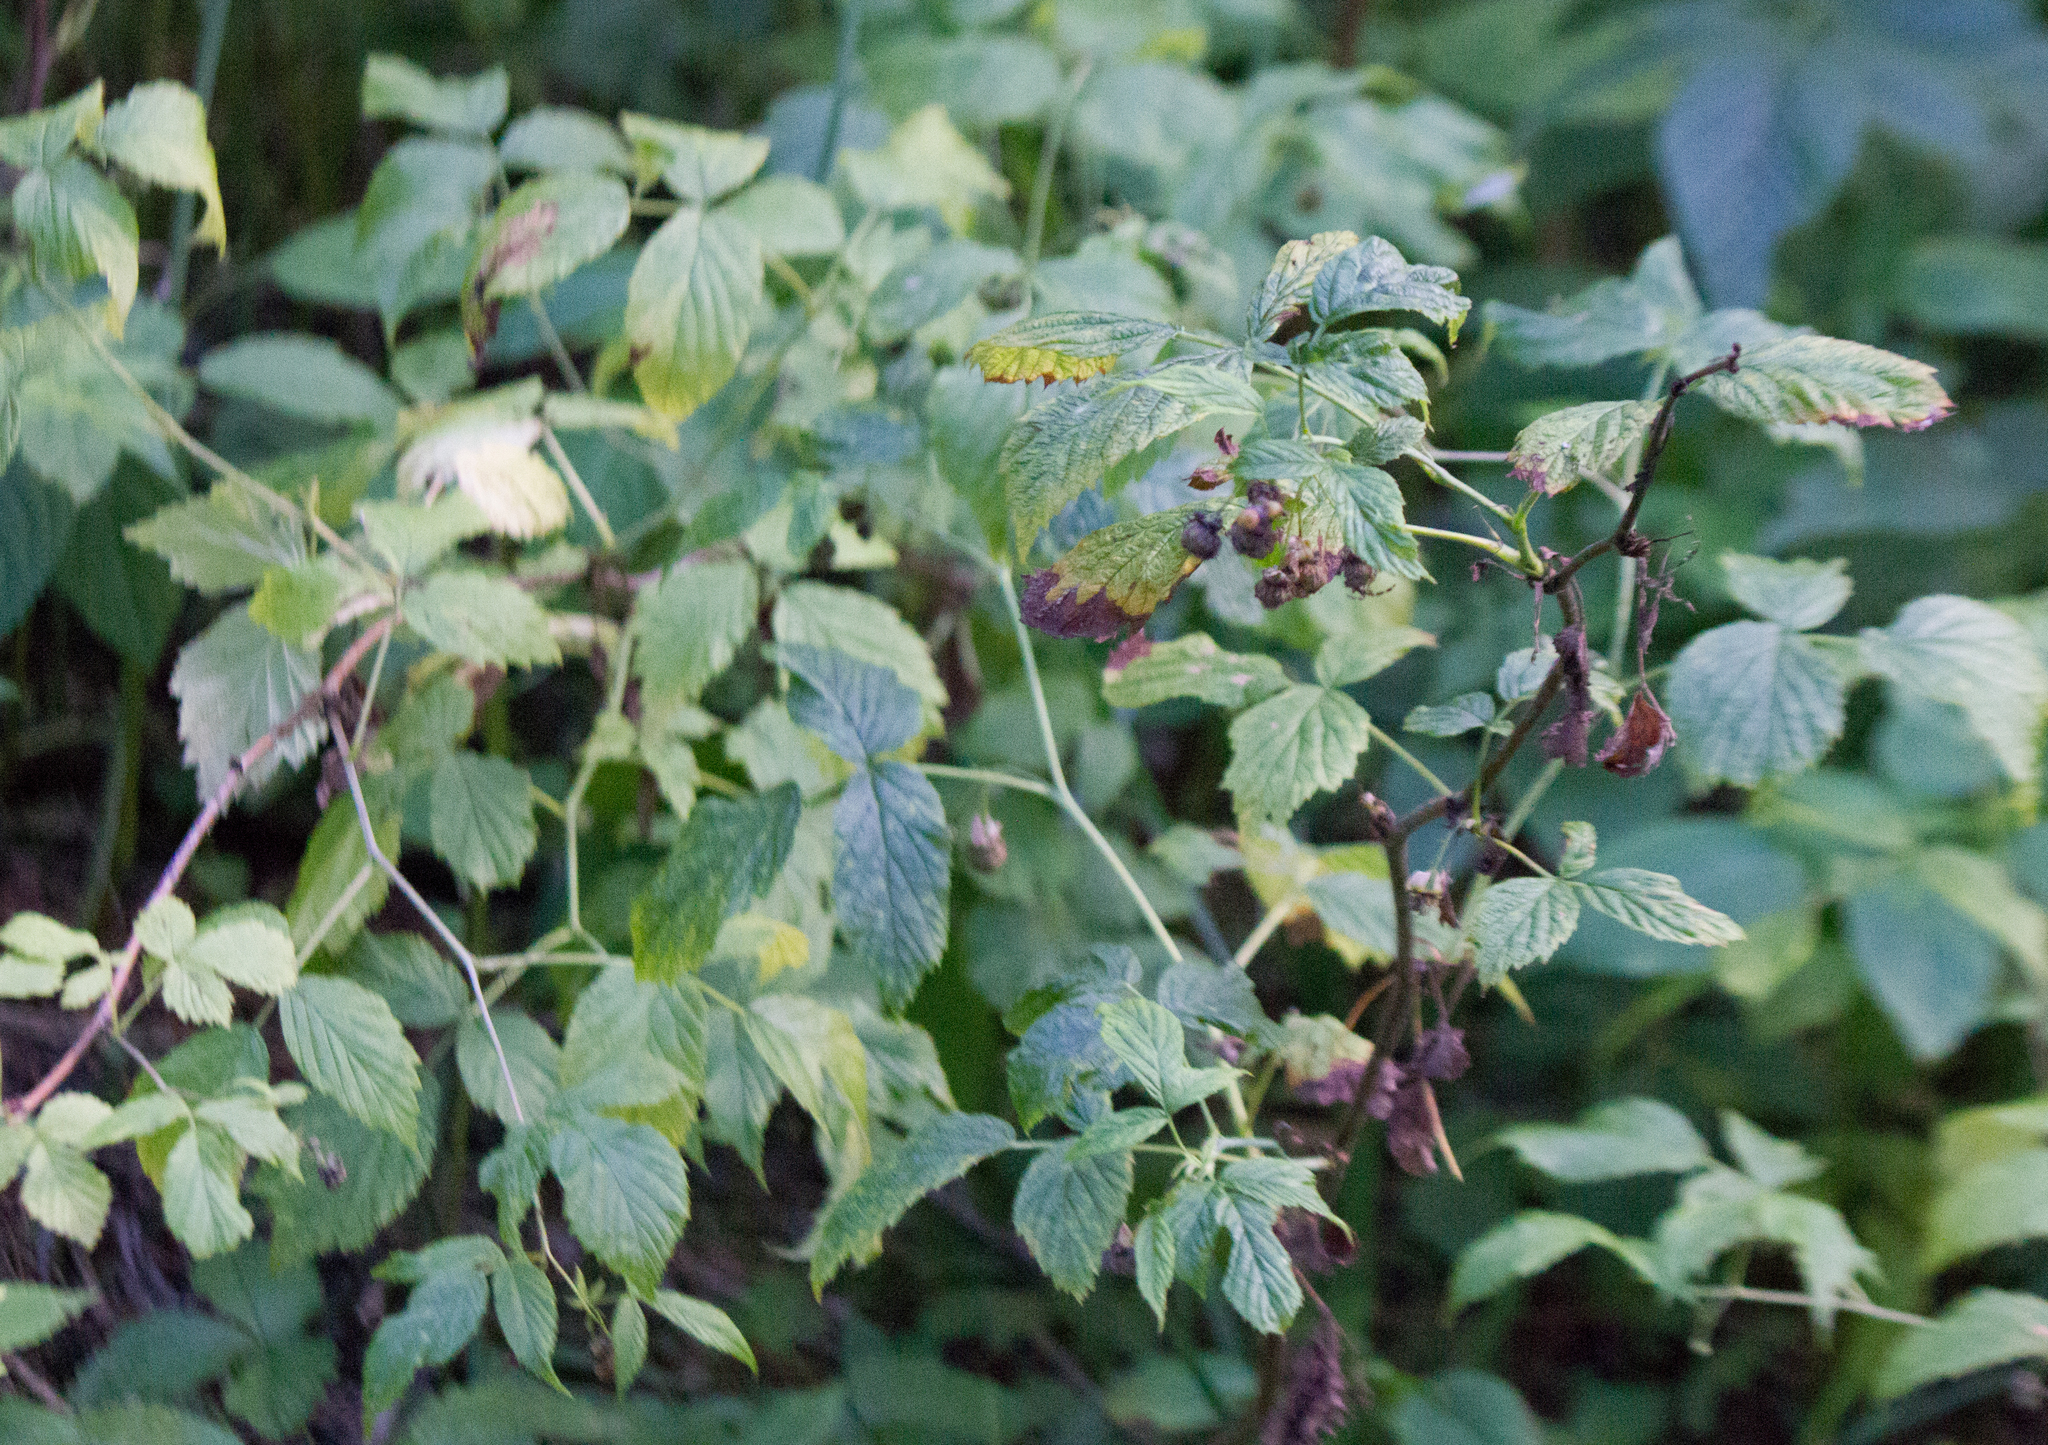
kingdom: Plantae
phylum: Tracheophyta
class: Magnoliopsida
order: Rosales
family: Rosaceae
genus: Rubus
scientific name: Rubus idaeus
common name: Raspberry
